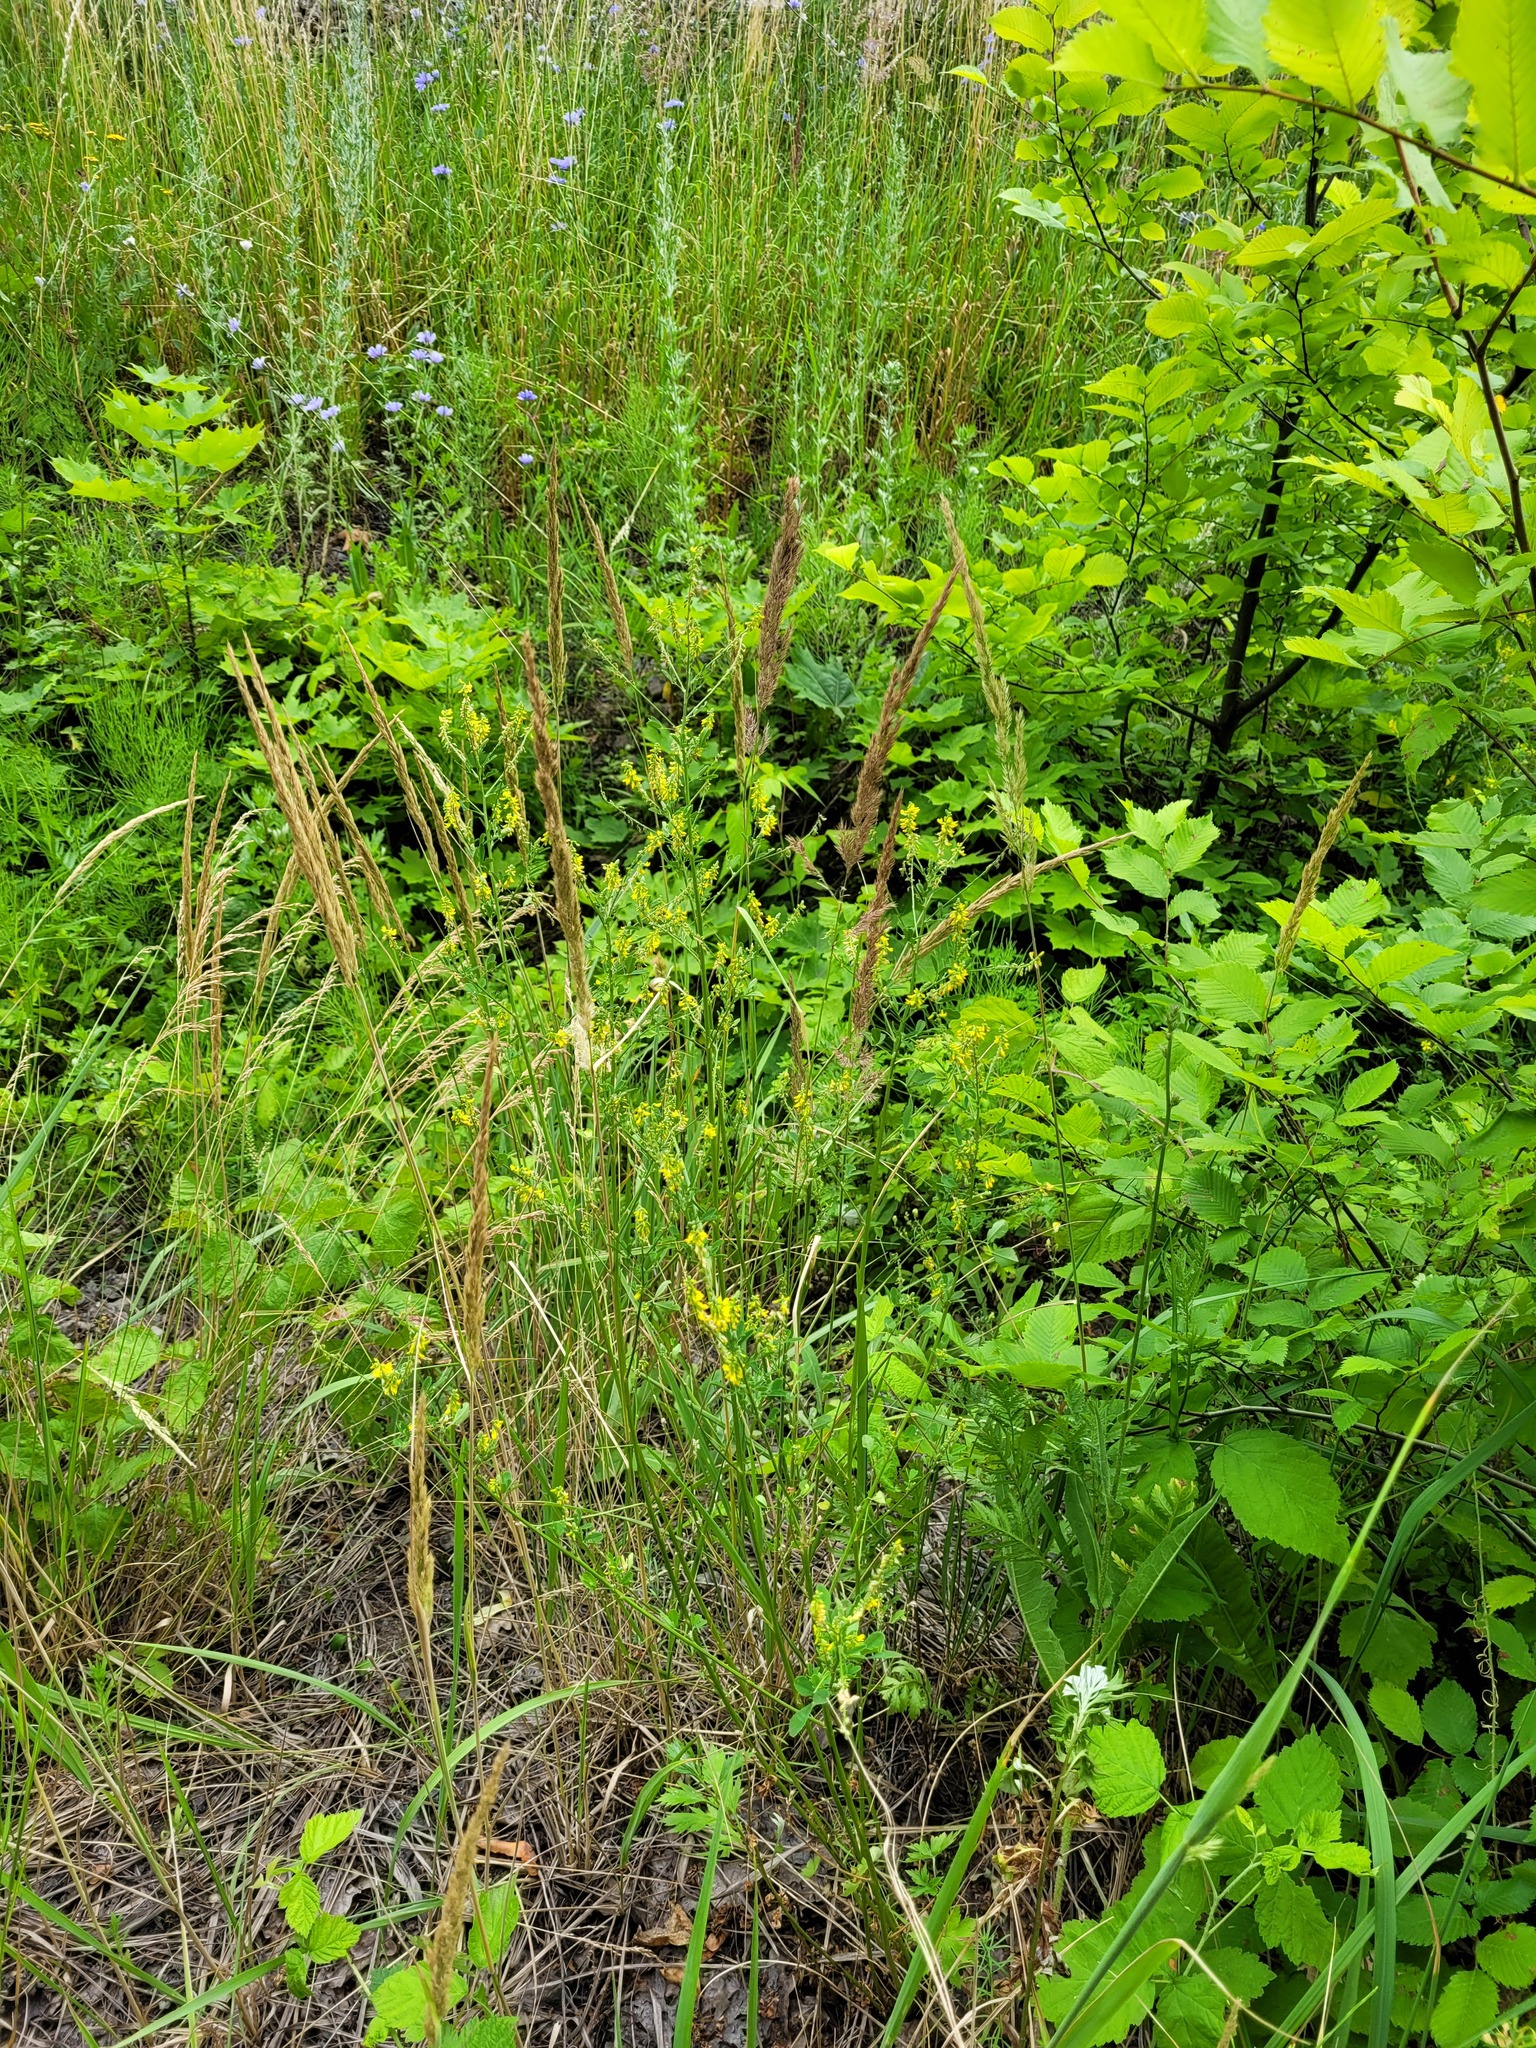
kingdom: Plantae
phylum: Tracheophyta
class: Magnoliopsida
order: Fabales
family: Fabaceae
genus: Melilotus
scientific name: Melilotus officinalis
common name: Sweetclover
